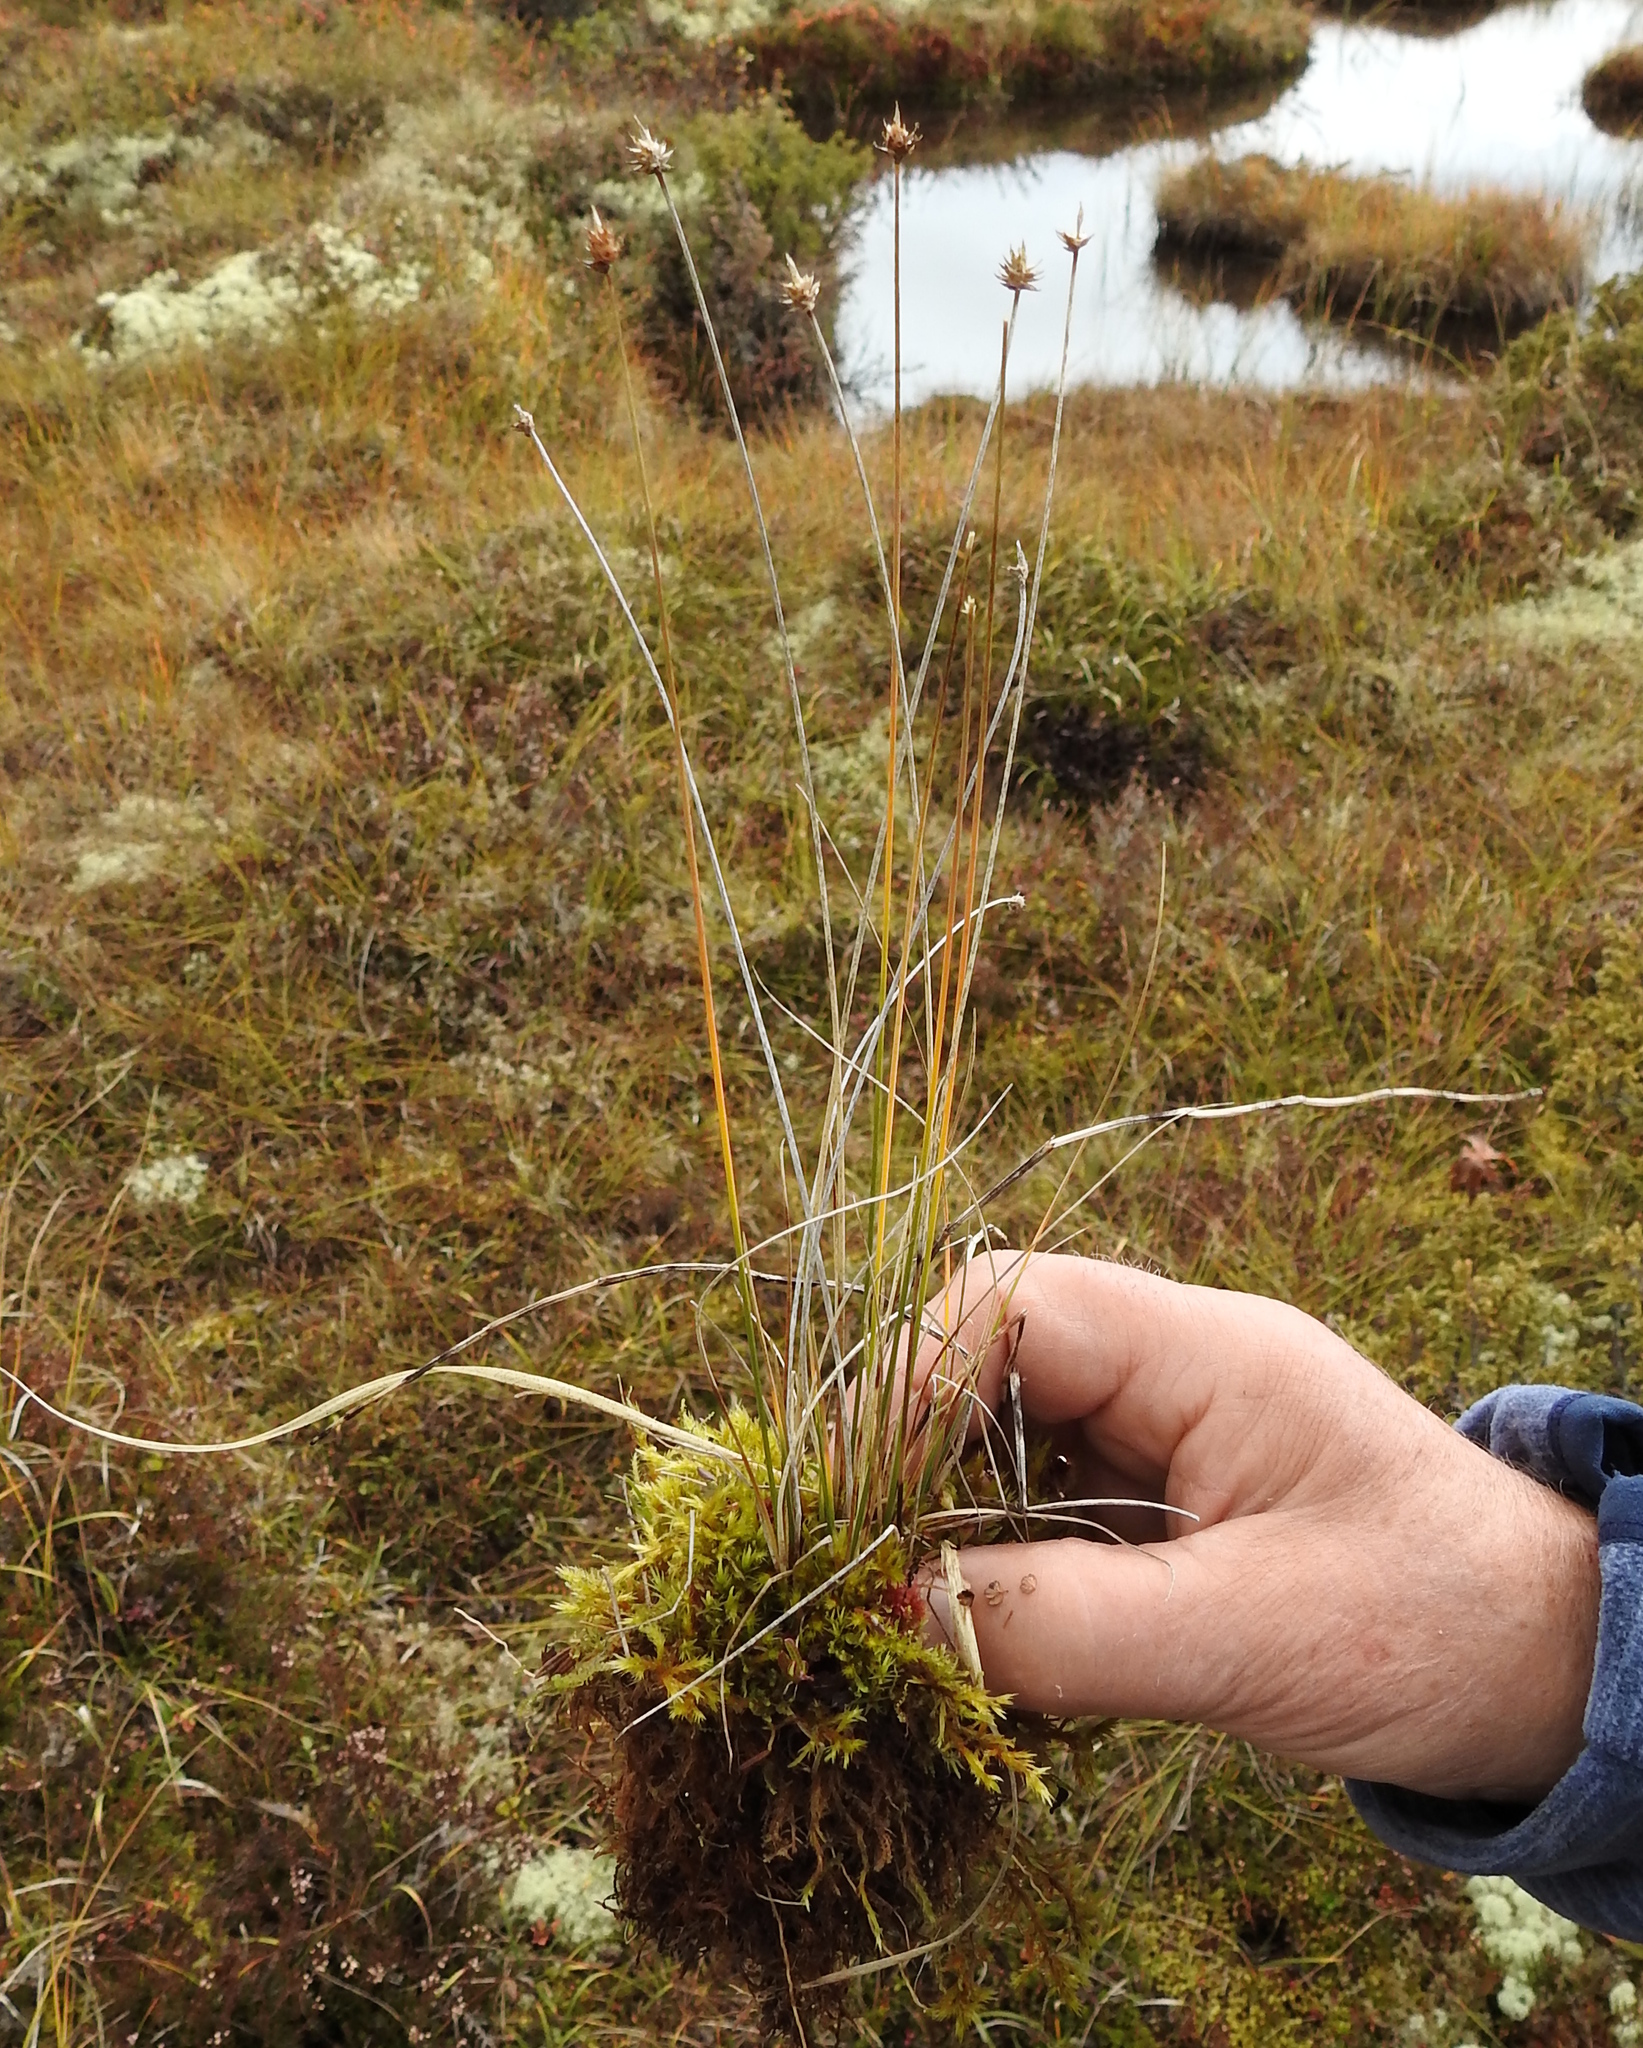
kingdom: Plantae
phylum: Tracheophyta
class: Liliopsida
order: Poales
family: Cyperaceae
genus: Carex
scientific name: Carex capitata
